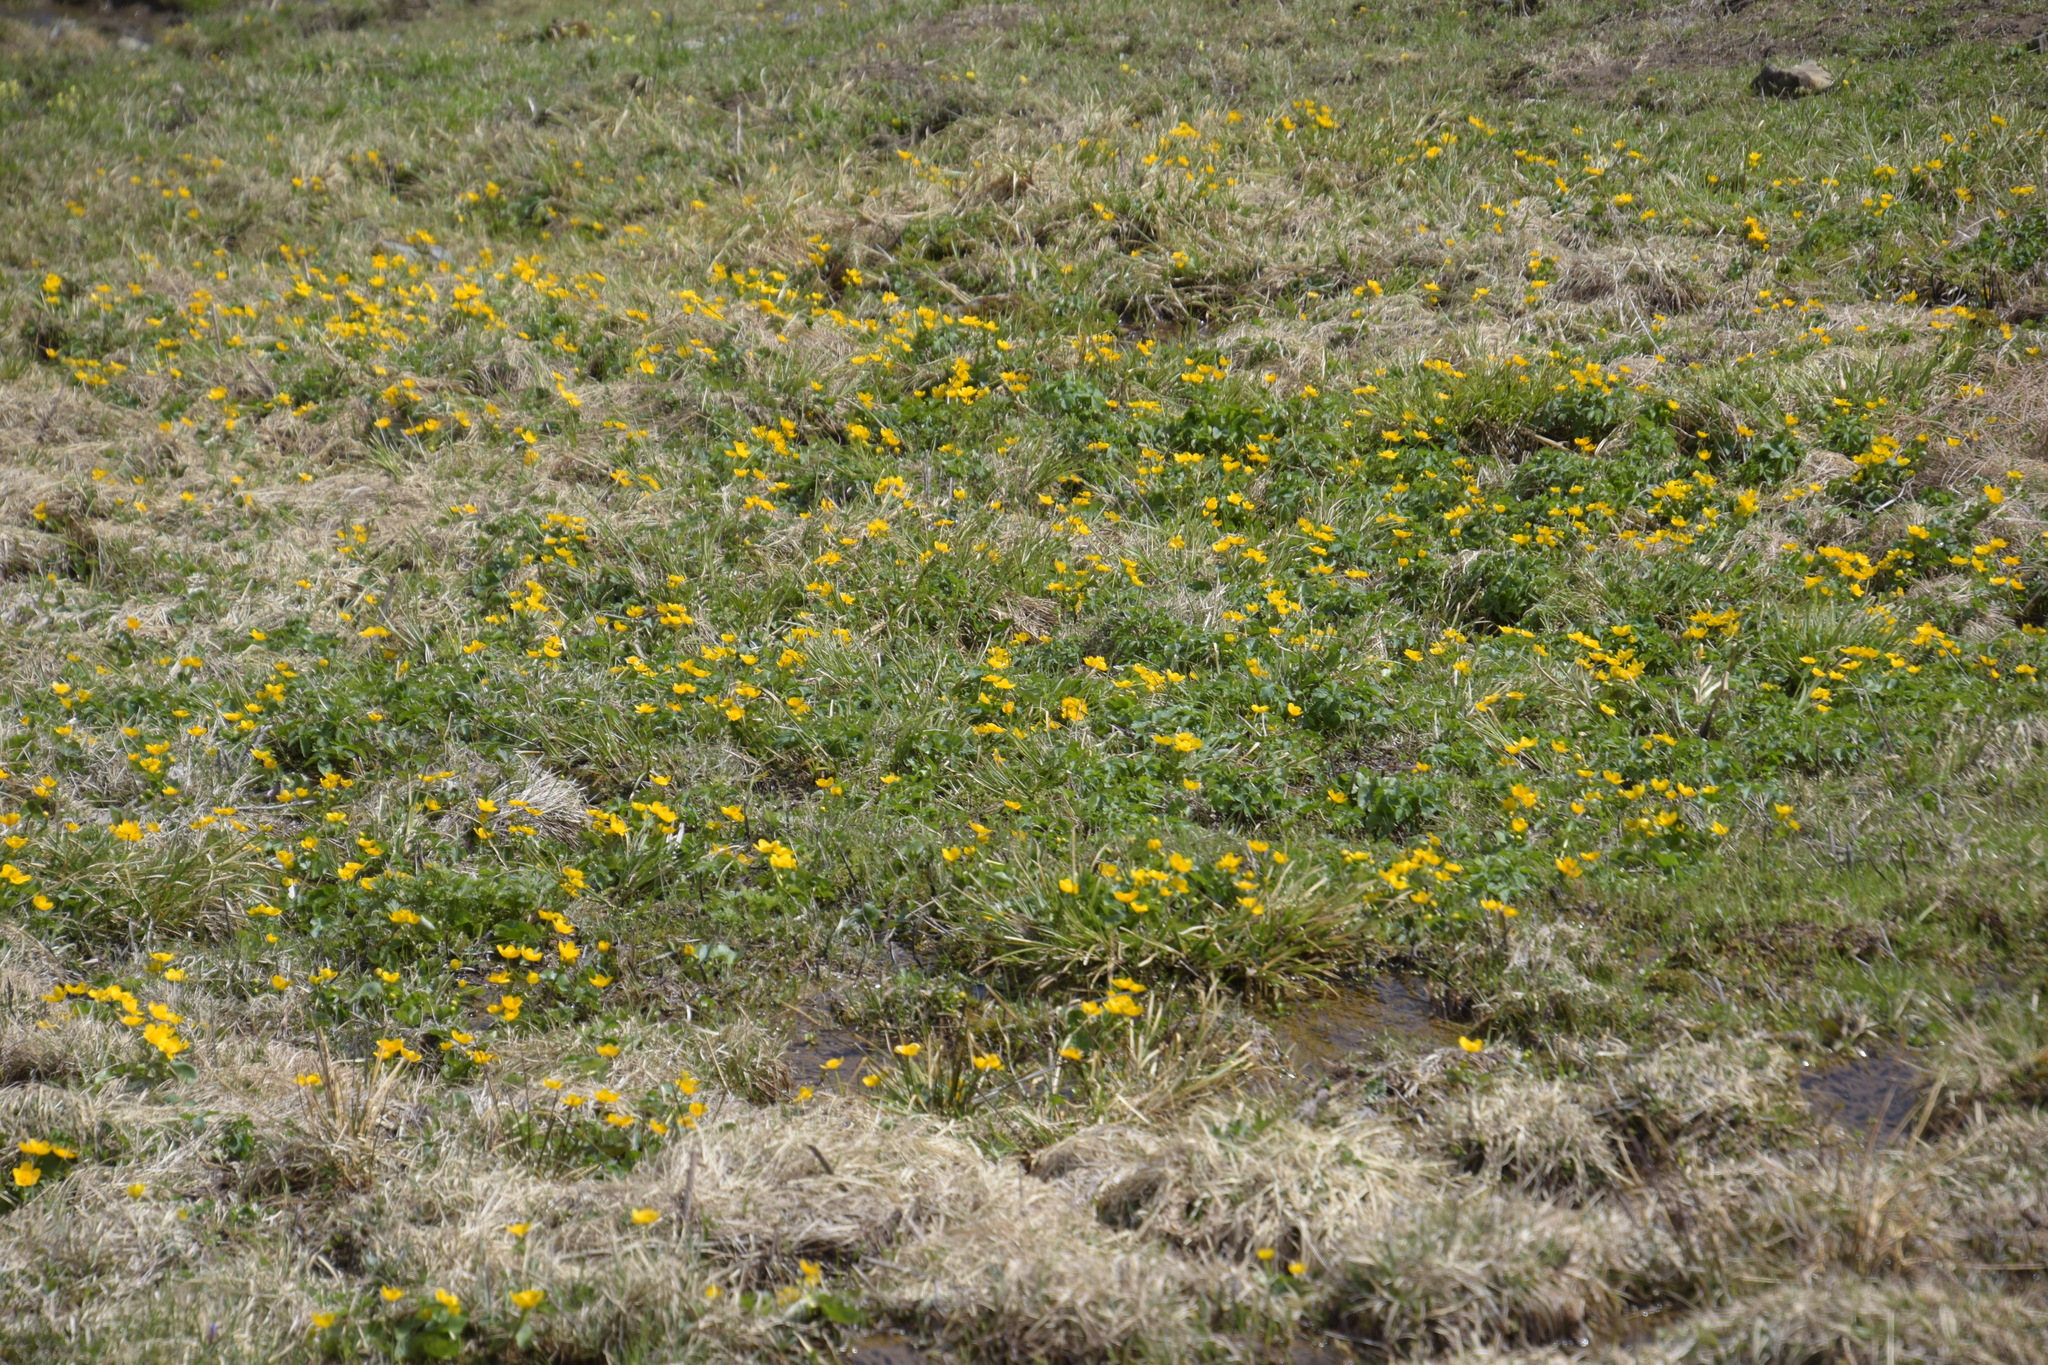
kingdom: Plantae
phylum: Tracheophyta
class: Magnoliopsida
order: Ranunculales
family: Ranunculaceae
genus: Caltha
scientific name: Caltha palustris
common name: Marsh marigold
